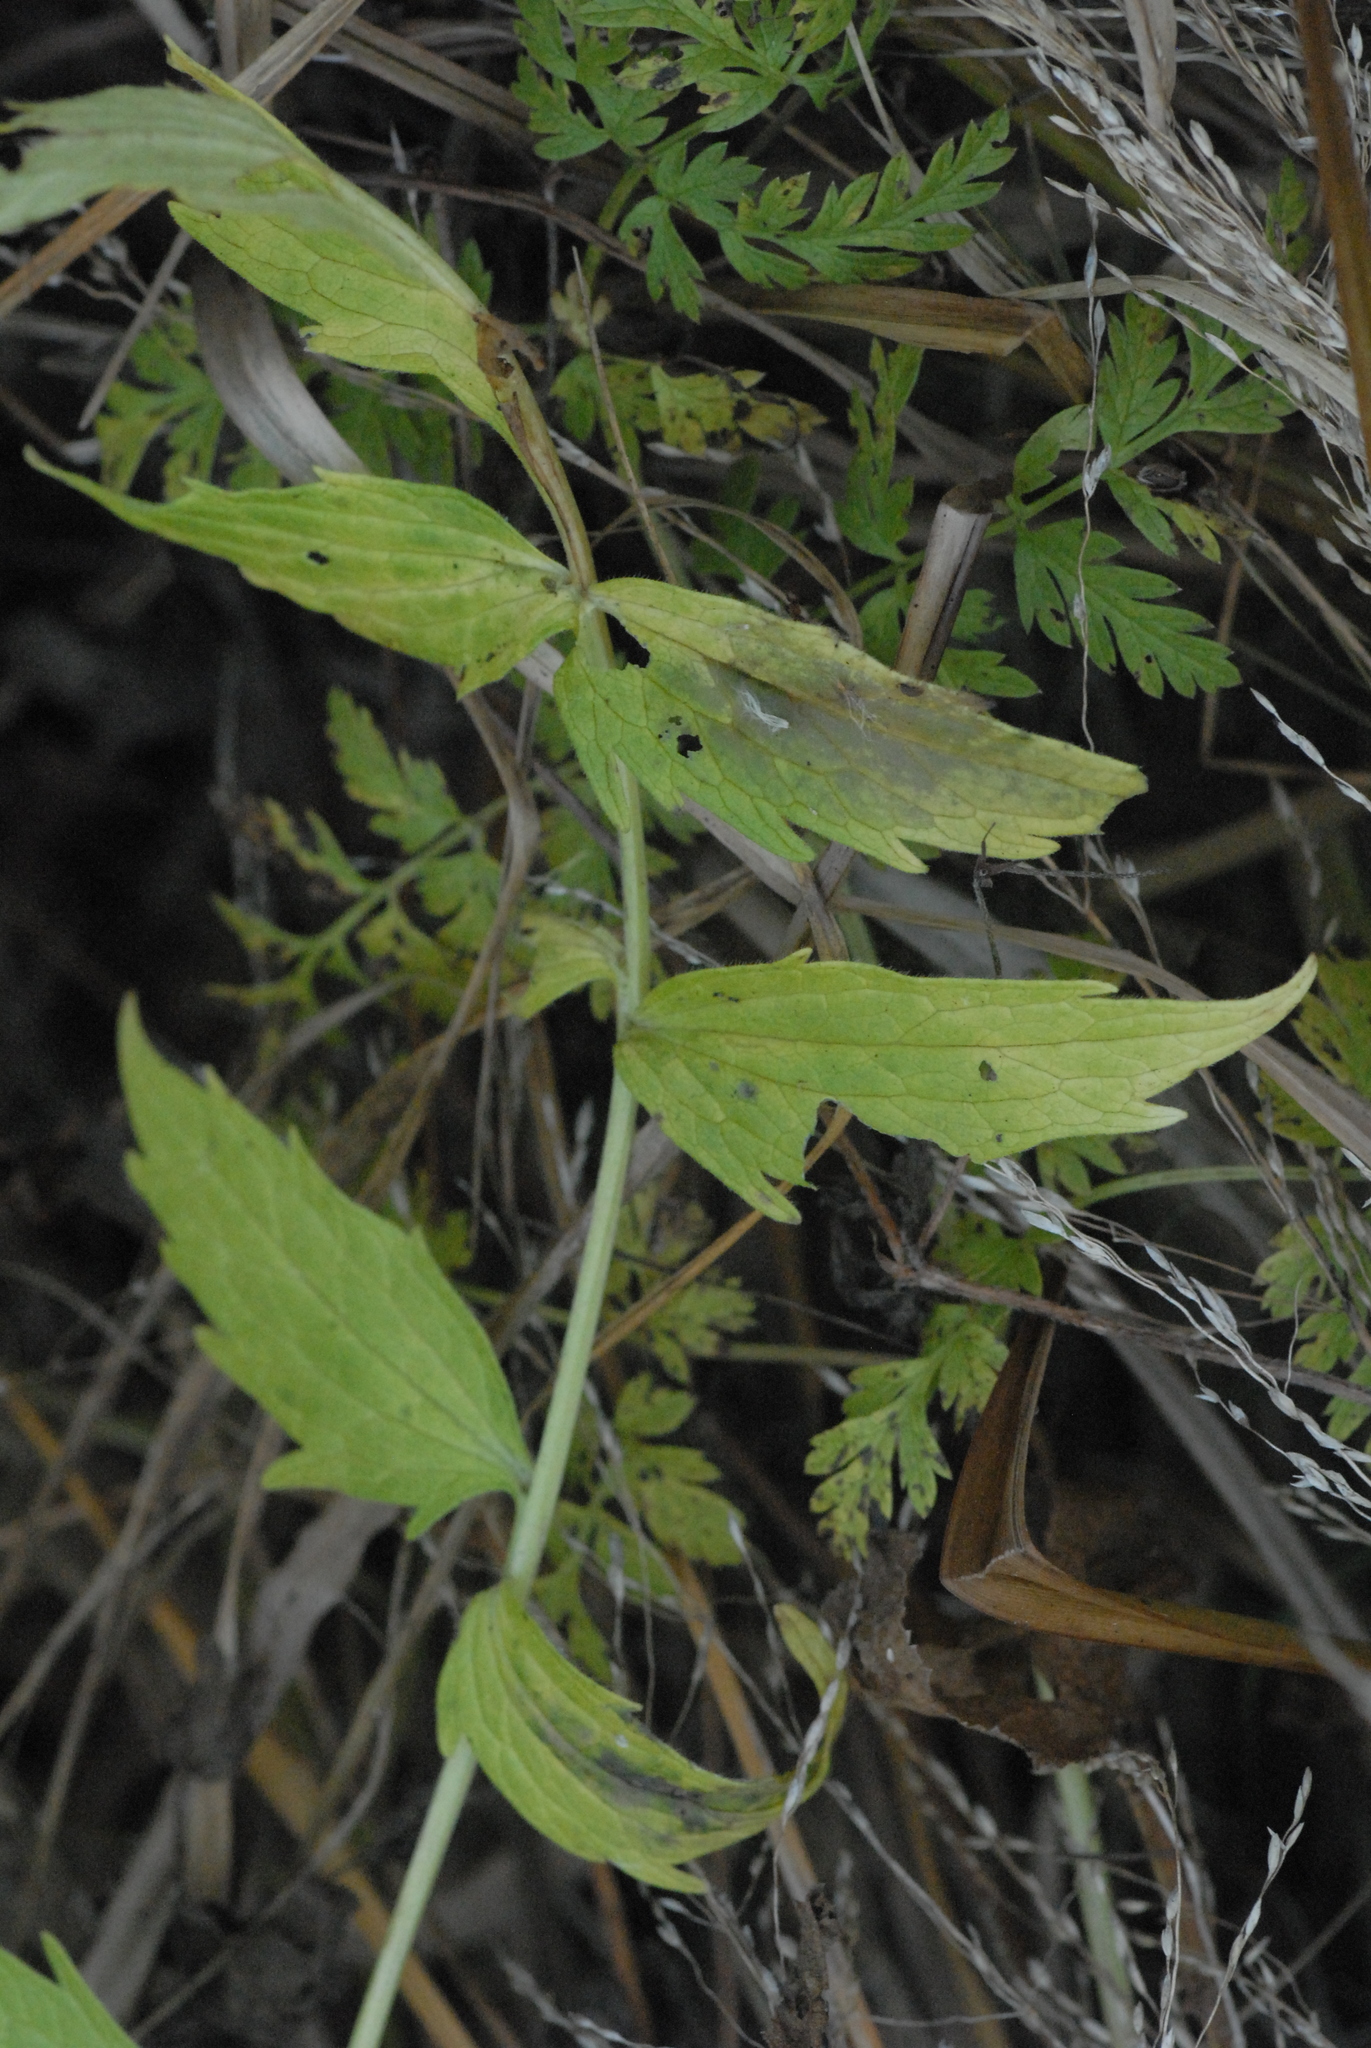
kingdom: Plantae
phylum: Tracheophyta
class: Magnoliopsida
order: Dipsacales
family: Caprifoliaceae
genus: Valeriana
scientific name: Valeriana officinalis
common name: Common valerian
